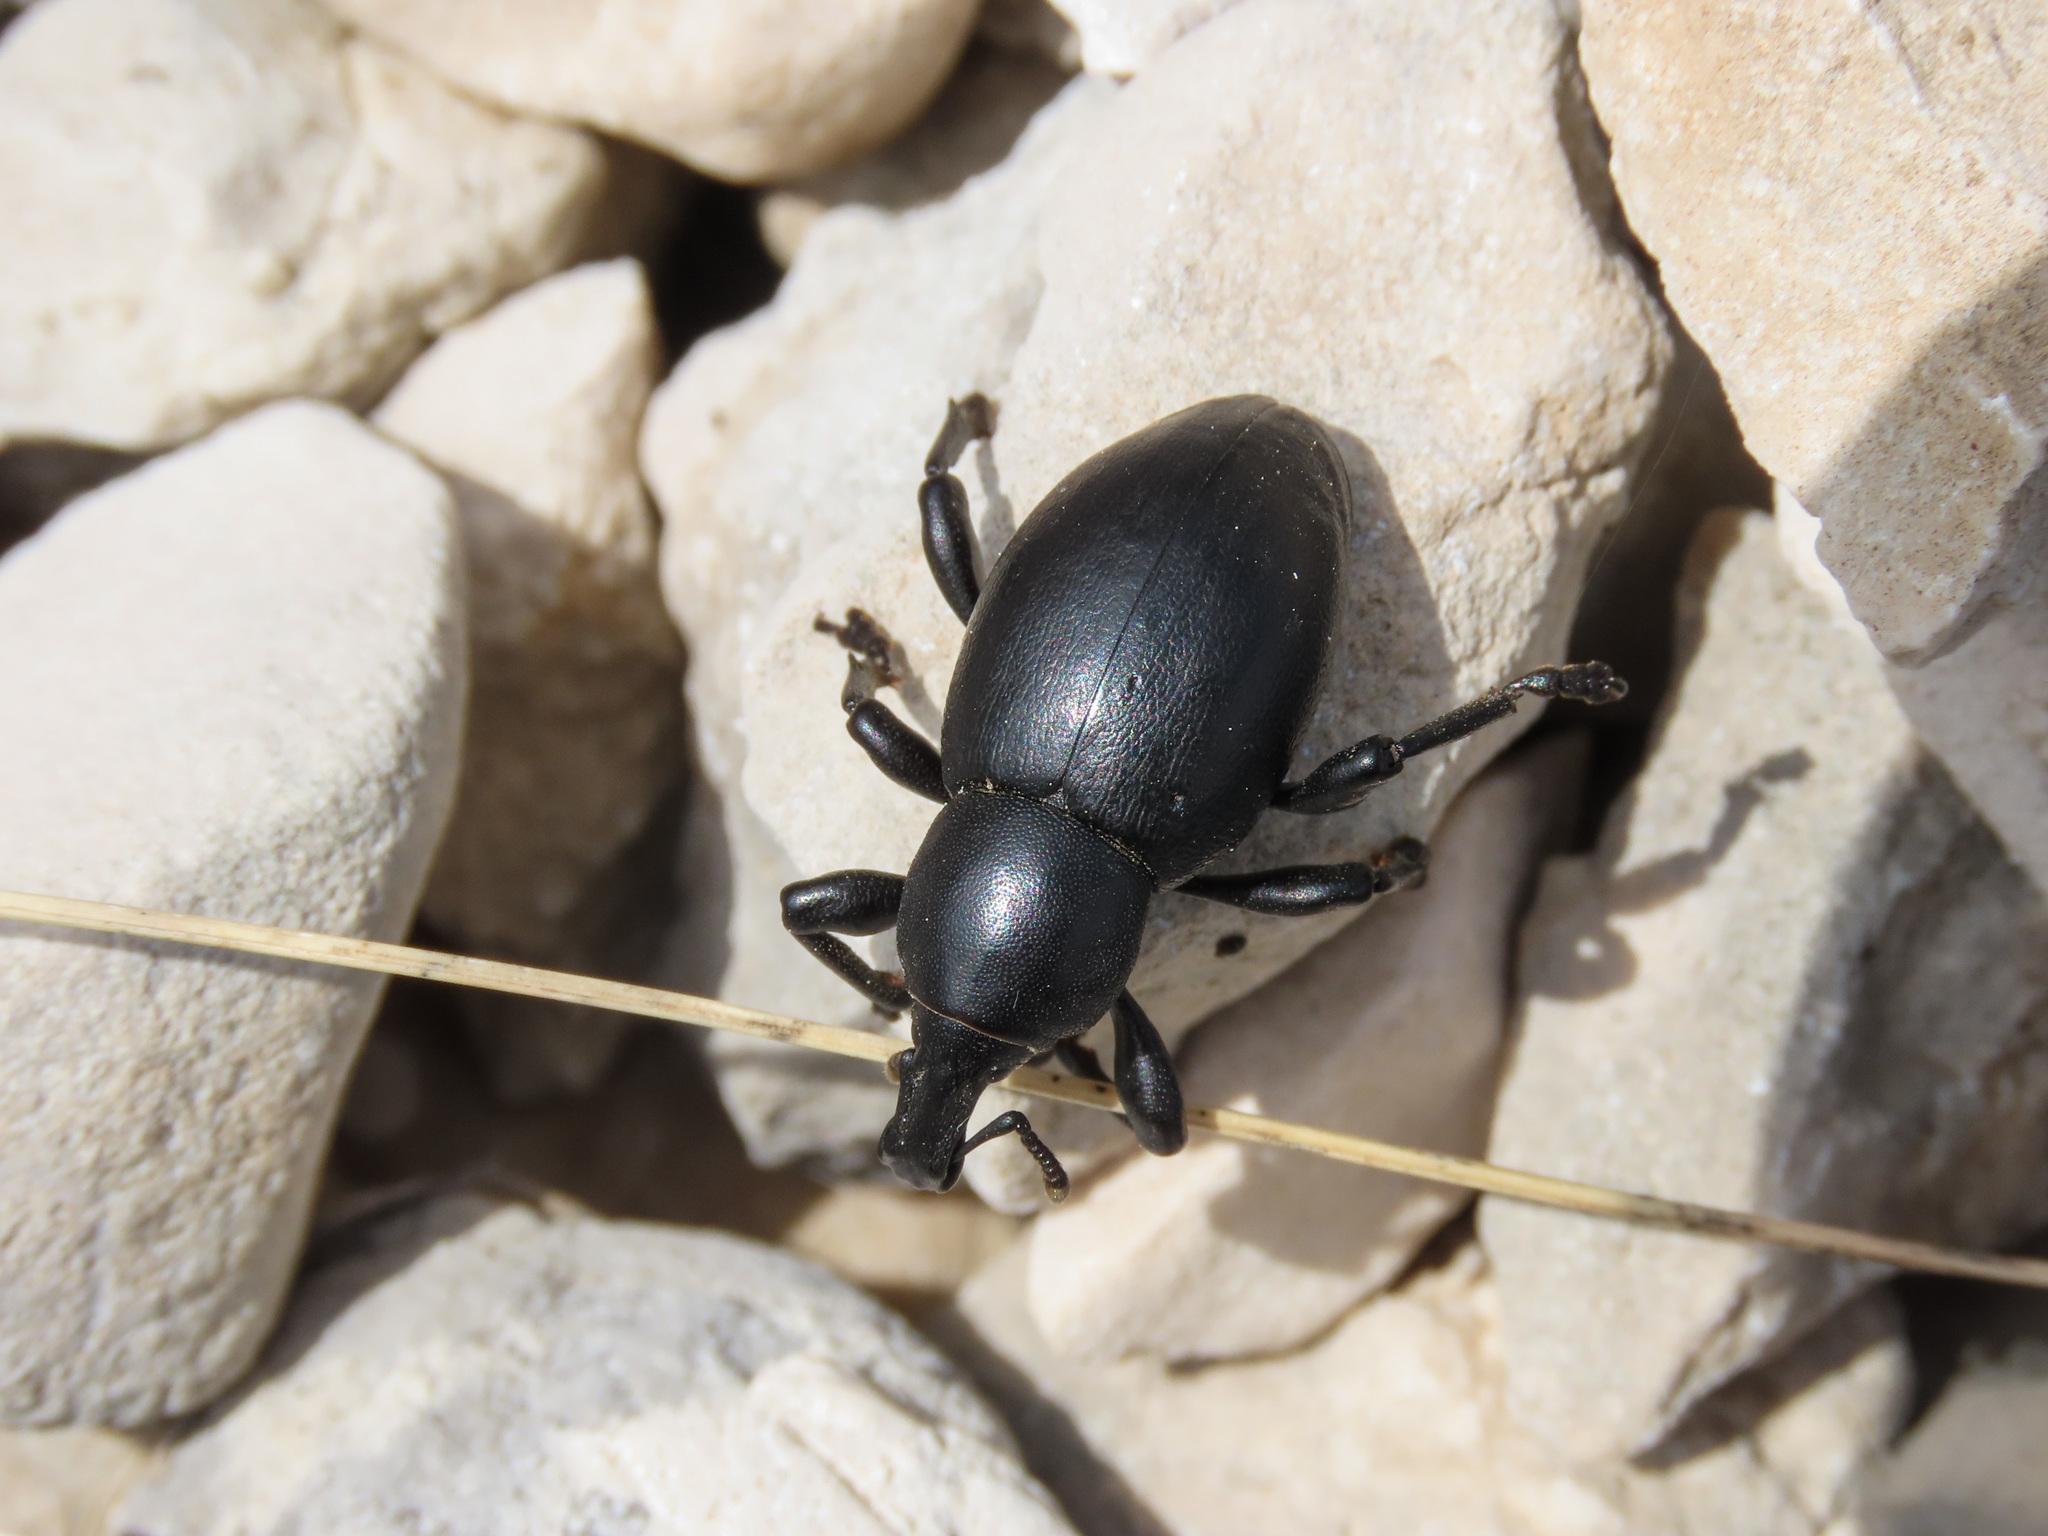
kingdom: Animalia
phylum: Arthropoda
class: Insecta
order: Coleoptera
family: Curculionidae
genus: Liparus
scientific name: Liparus dirus
